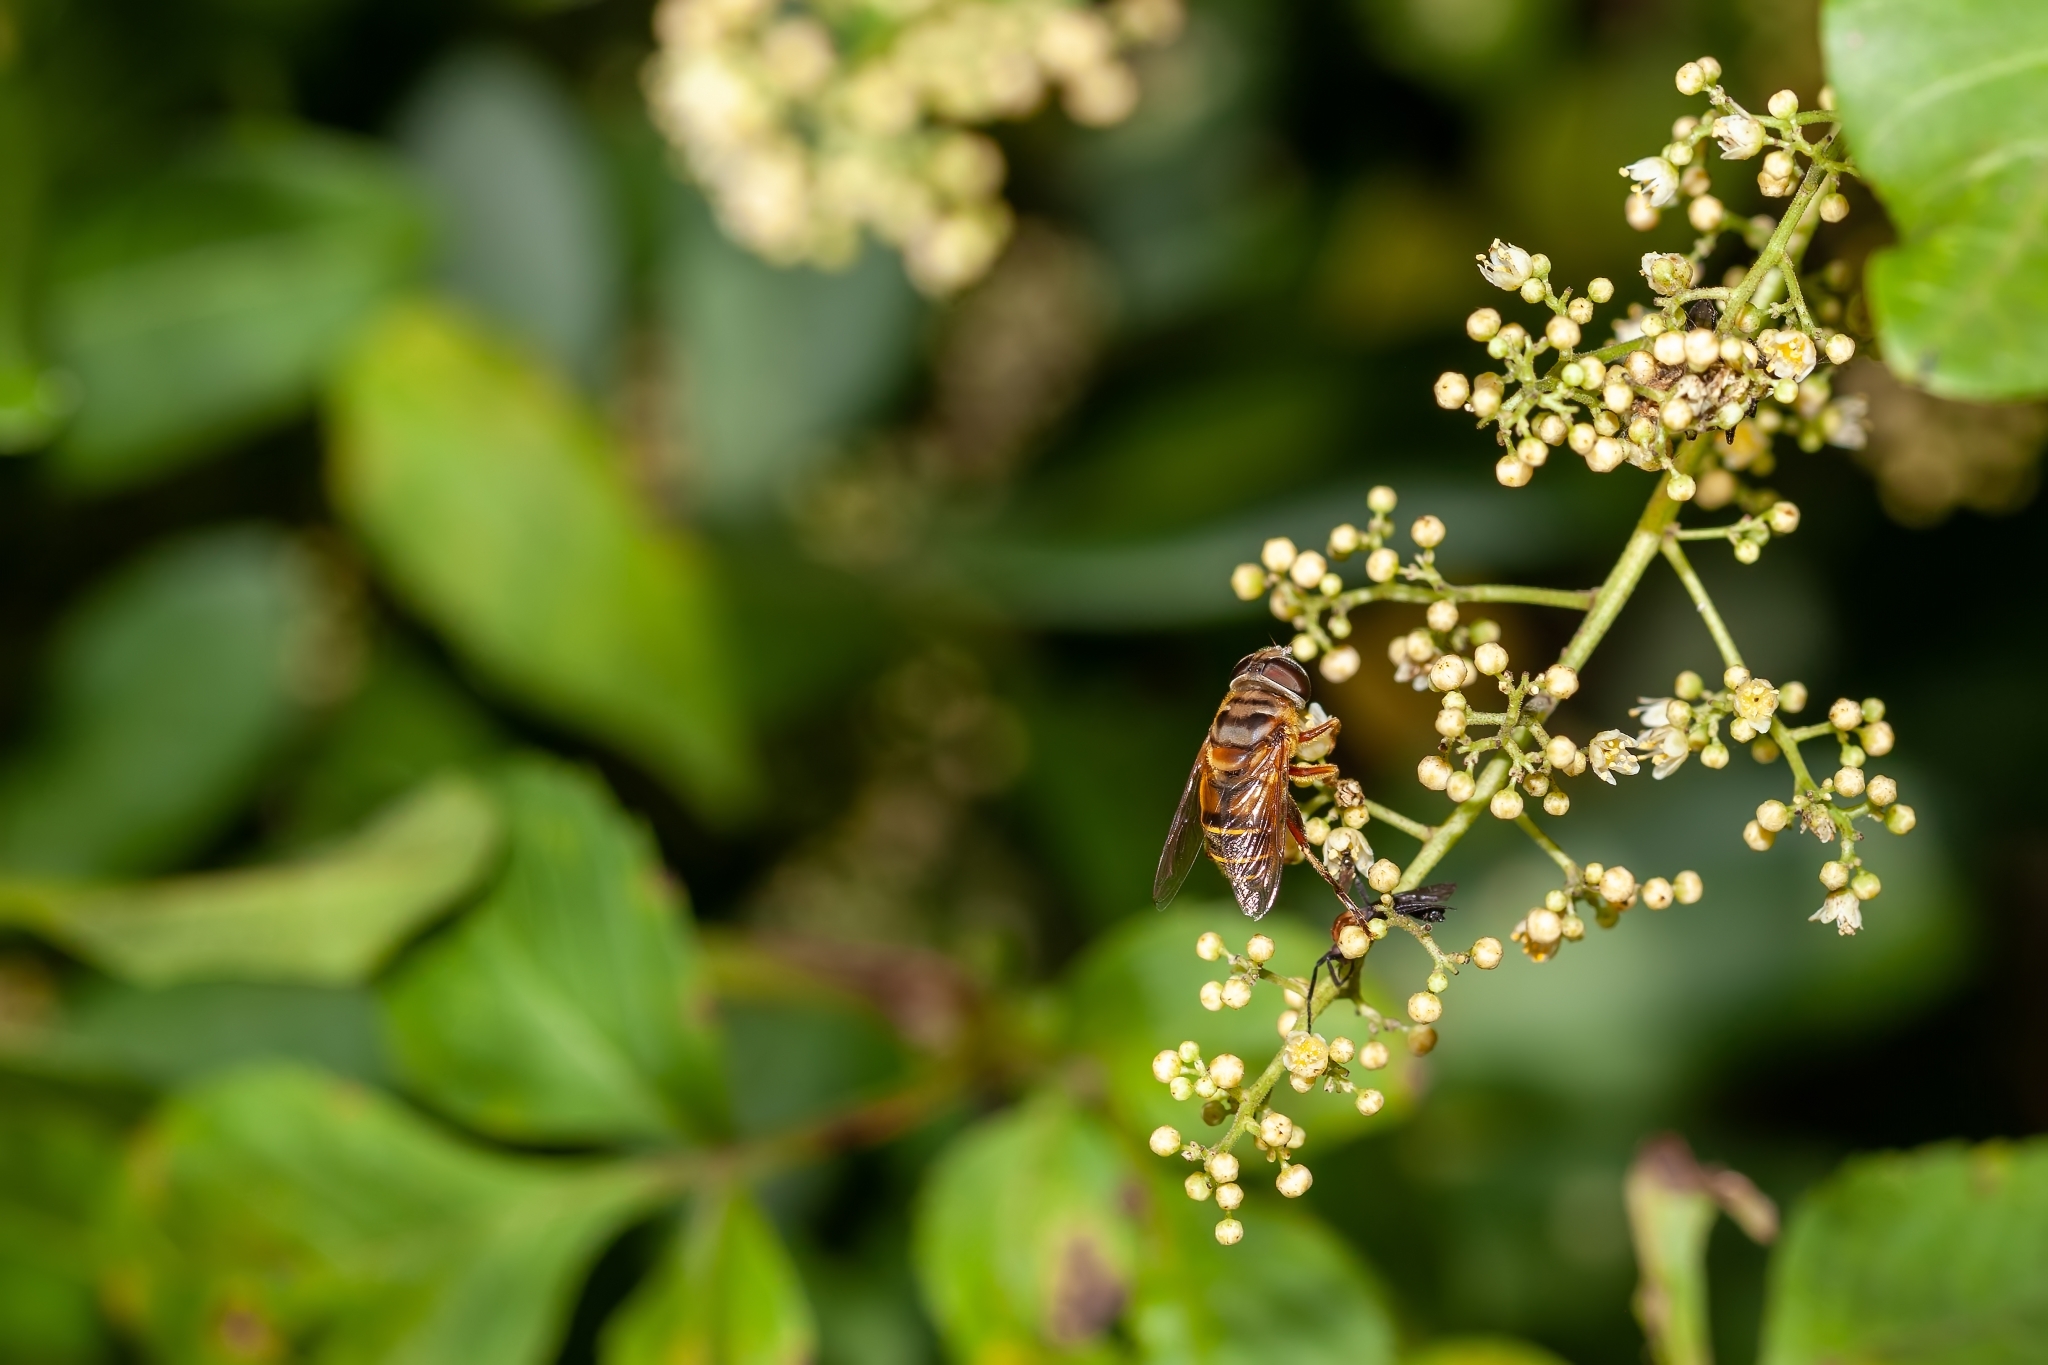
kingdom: Animalia
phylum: Arthropoda
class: Insecta
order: Diptera
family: Syrphidae
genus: Palpada
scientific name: Palpada vinetorum
